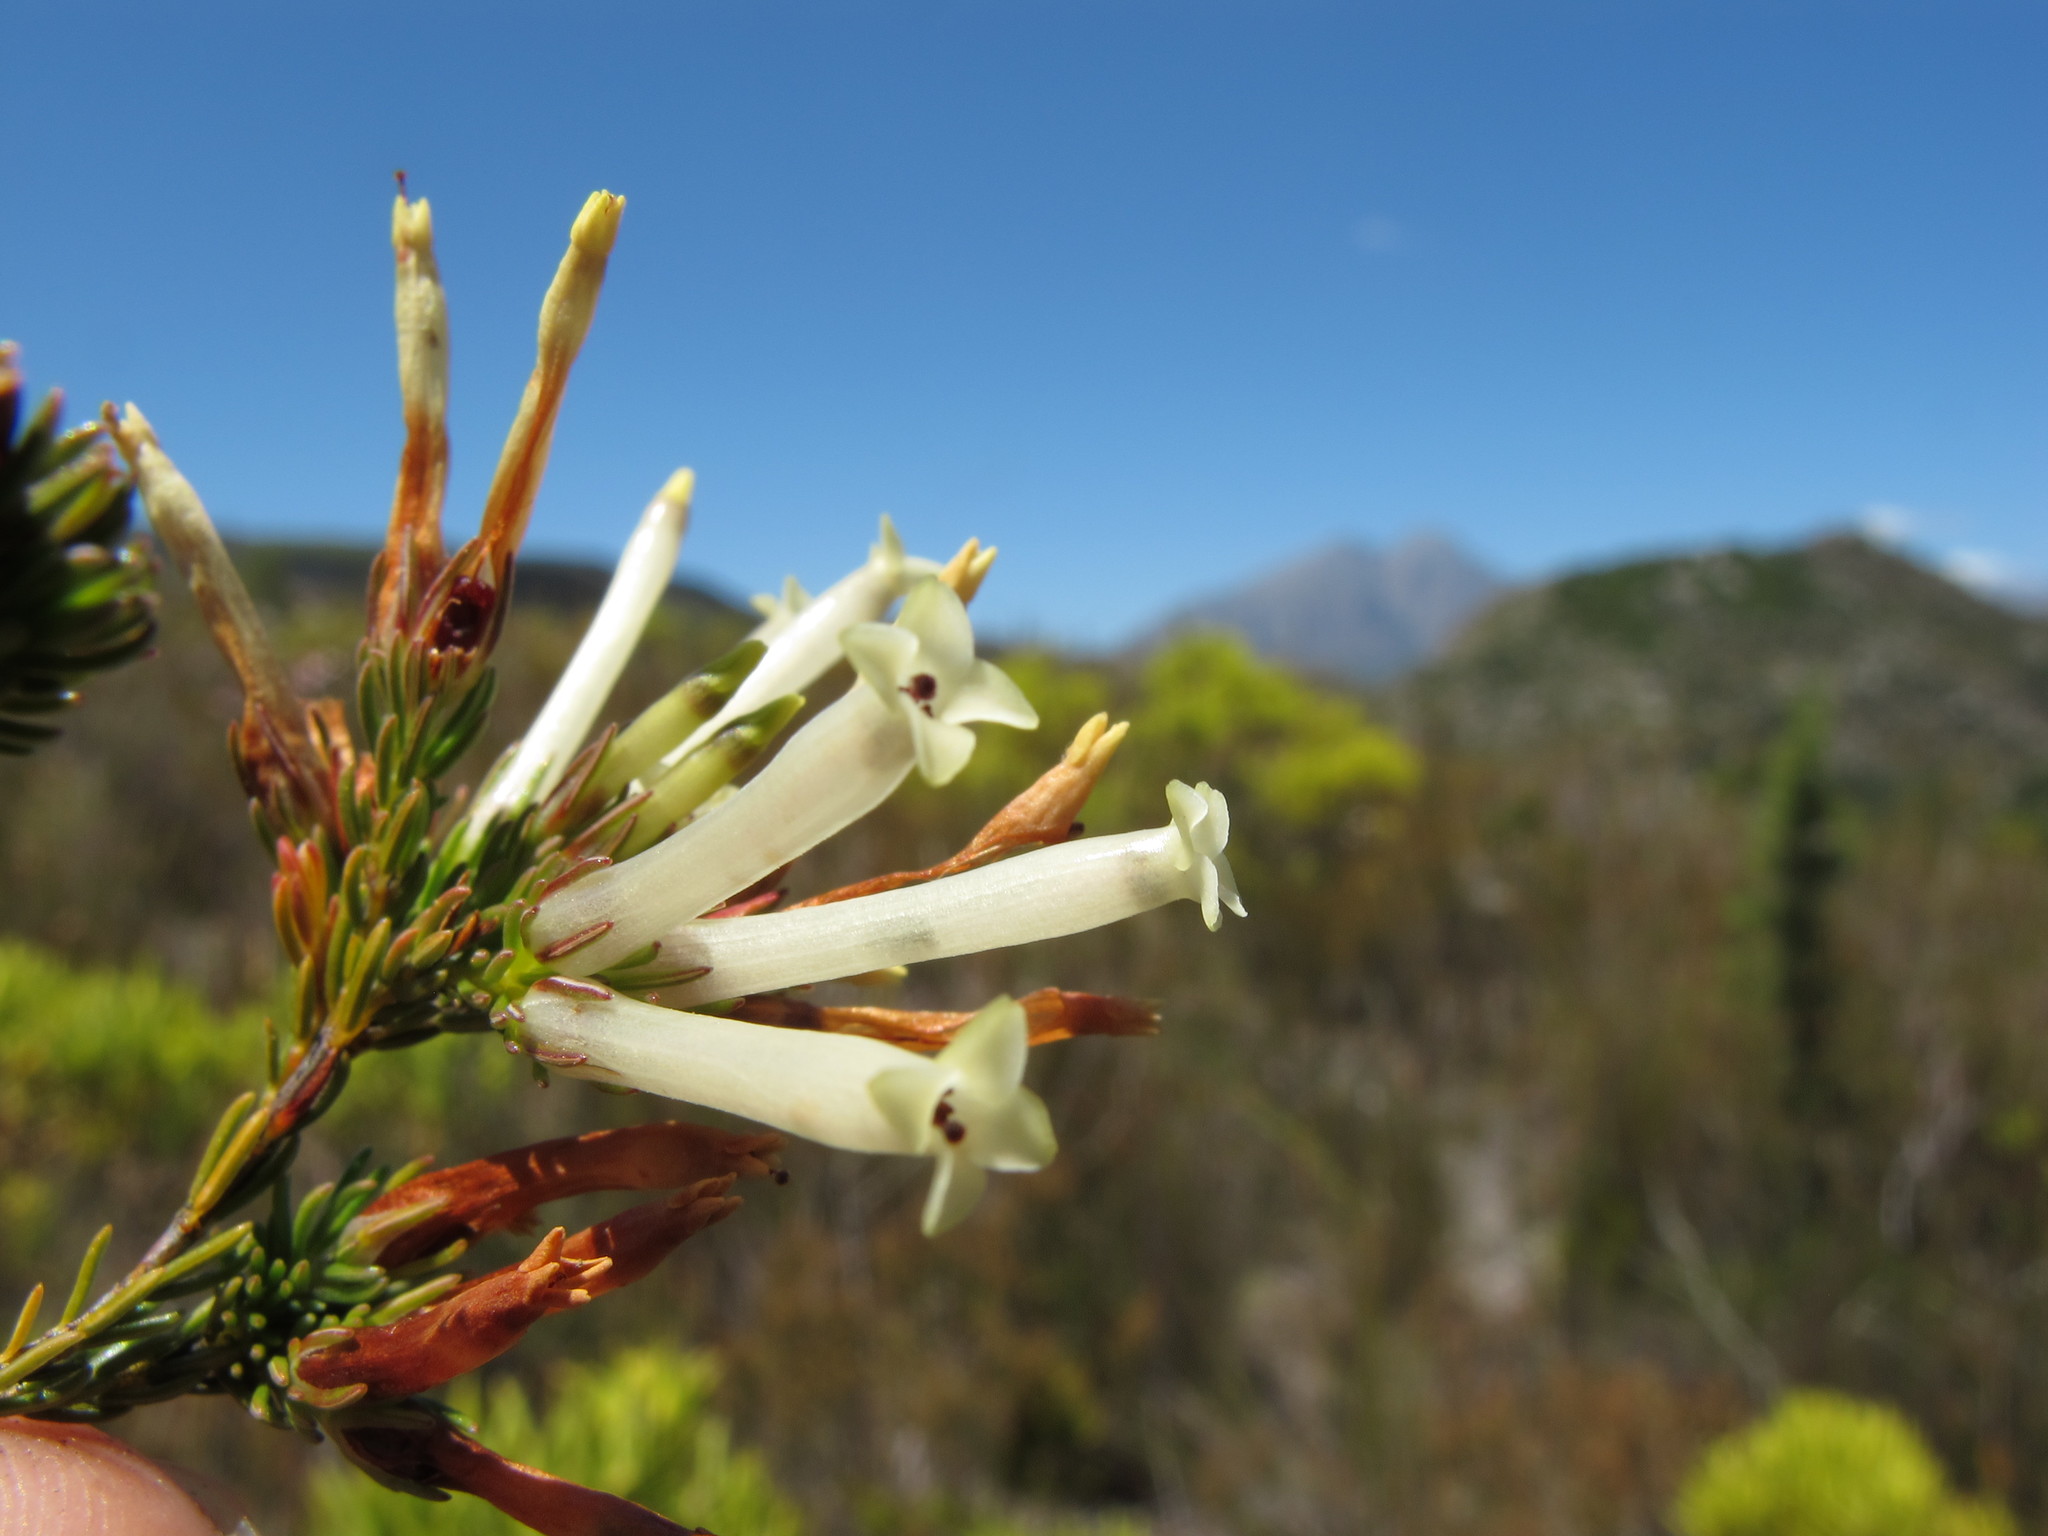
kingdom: Plantae
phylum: Tracheophyta
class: Magnoliopsida
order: Ericales
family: Ericaceae
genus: Erica
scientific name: Erica cylindrica
